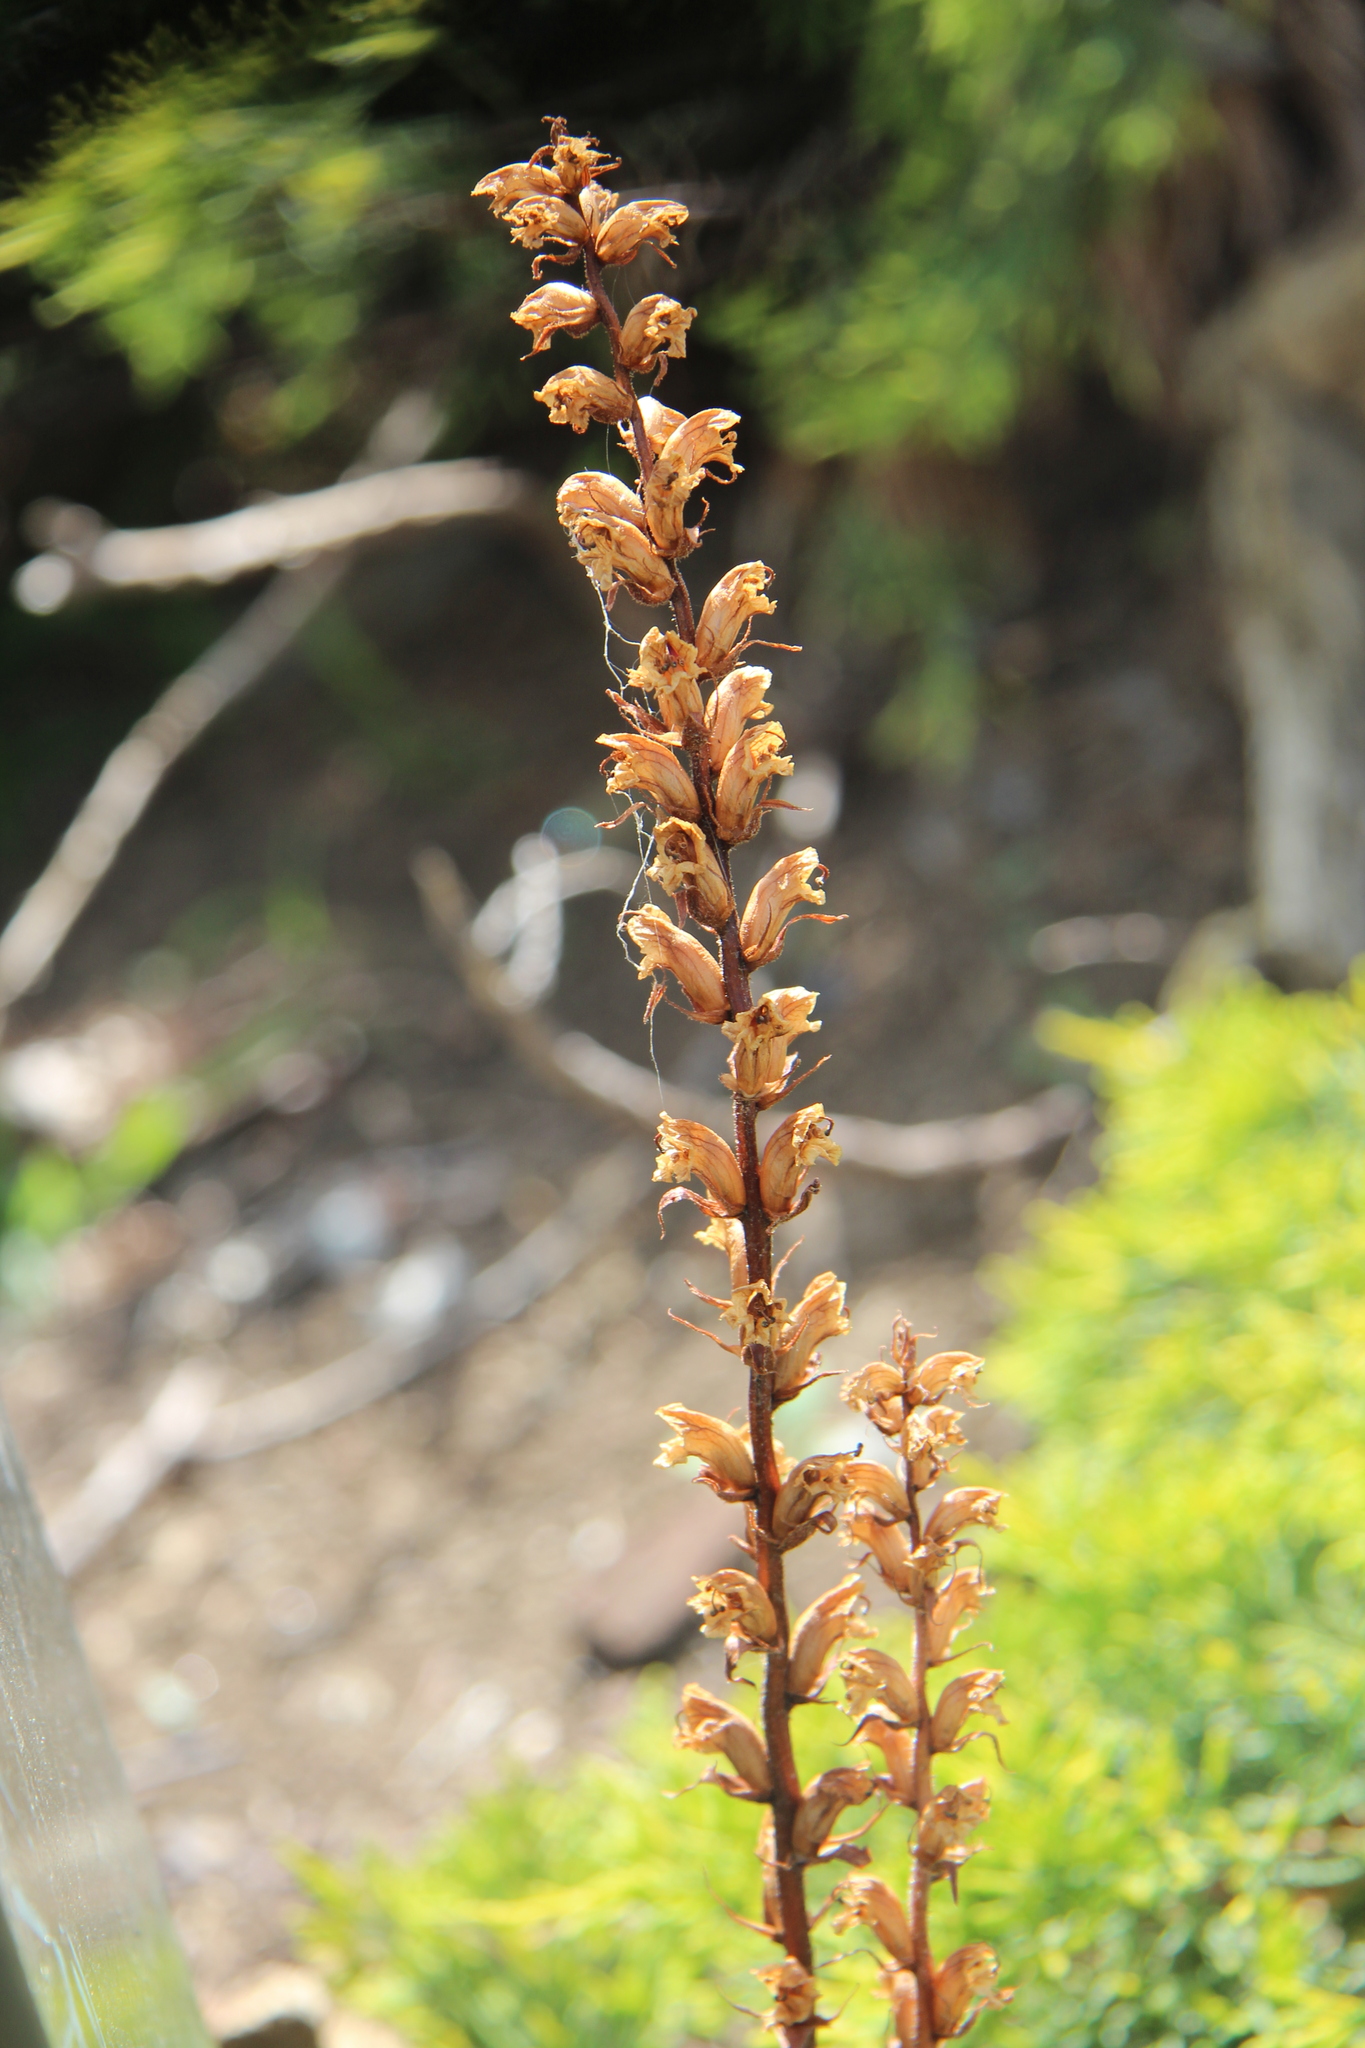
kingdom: Plantae
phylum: Tracheophyta
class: Magnoliopsida
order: Lamiales
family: Orobanchaceae
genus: Orobanche
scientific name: Orobanche minor
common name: Common broomrape
